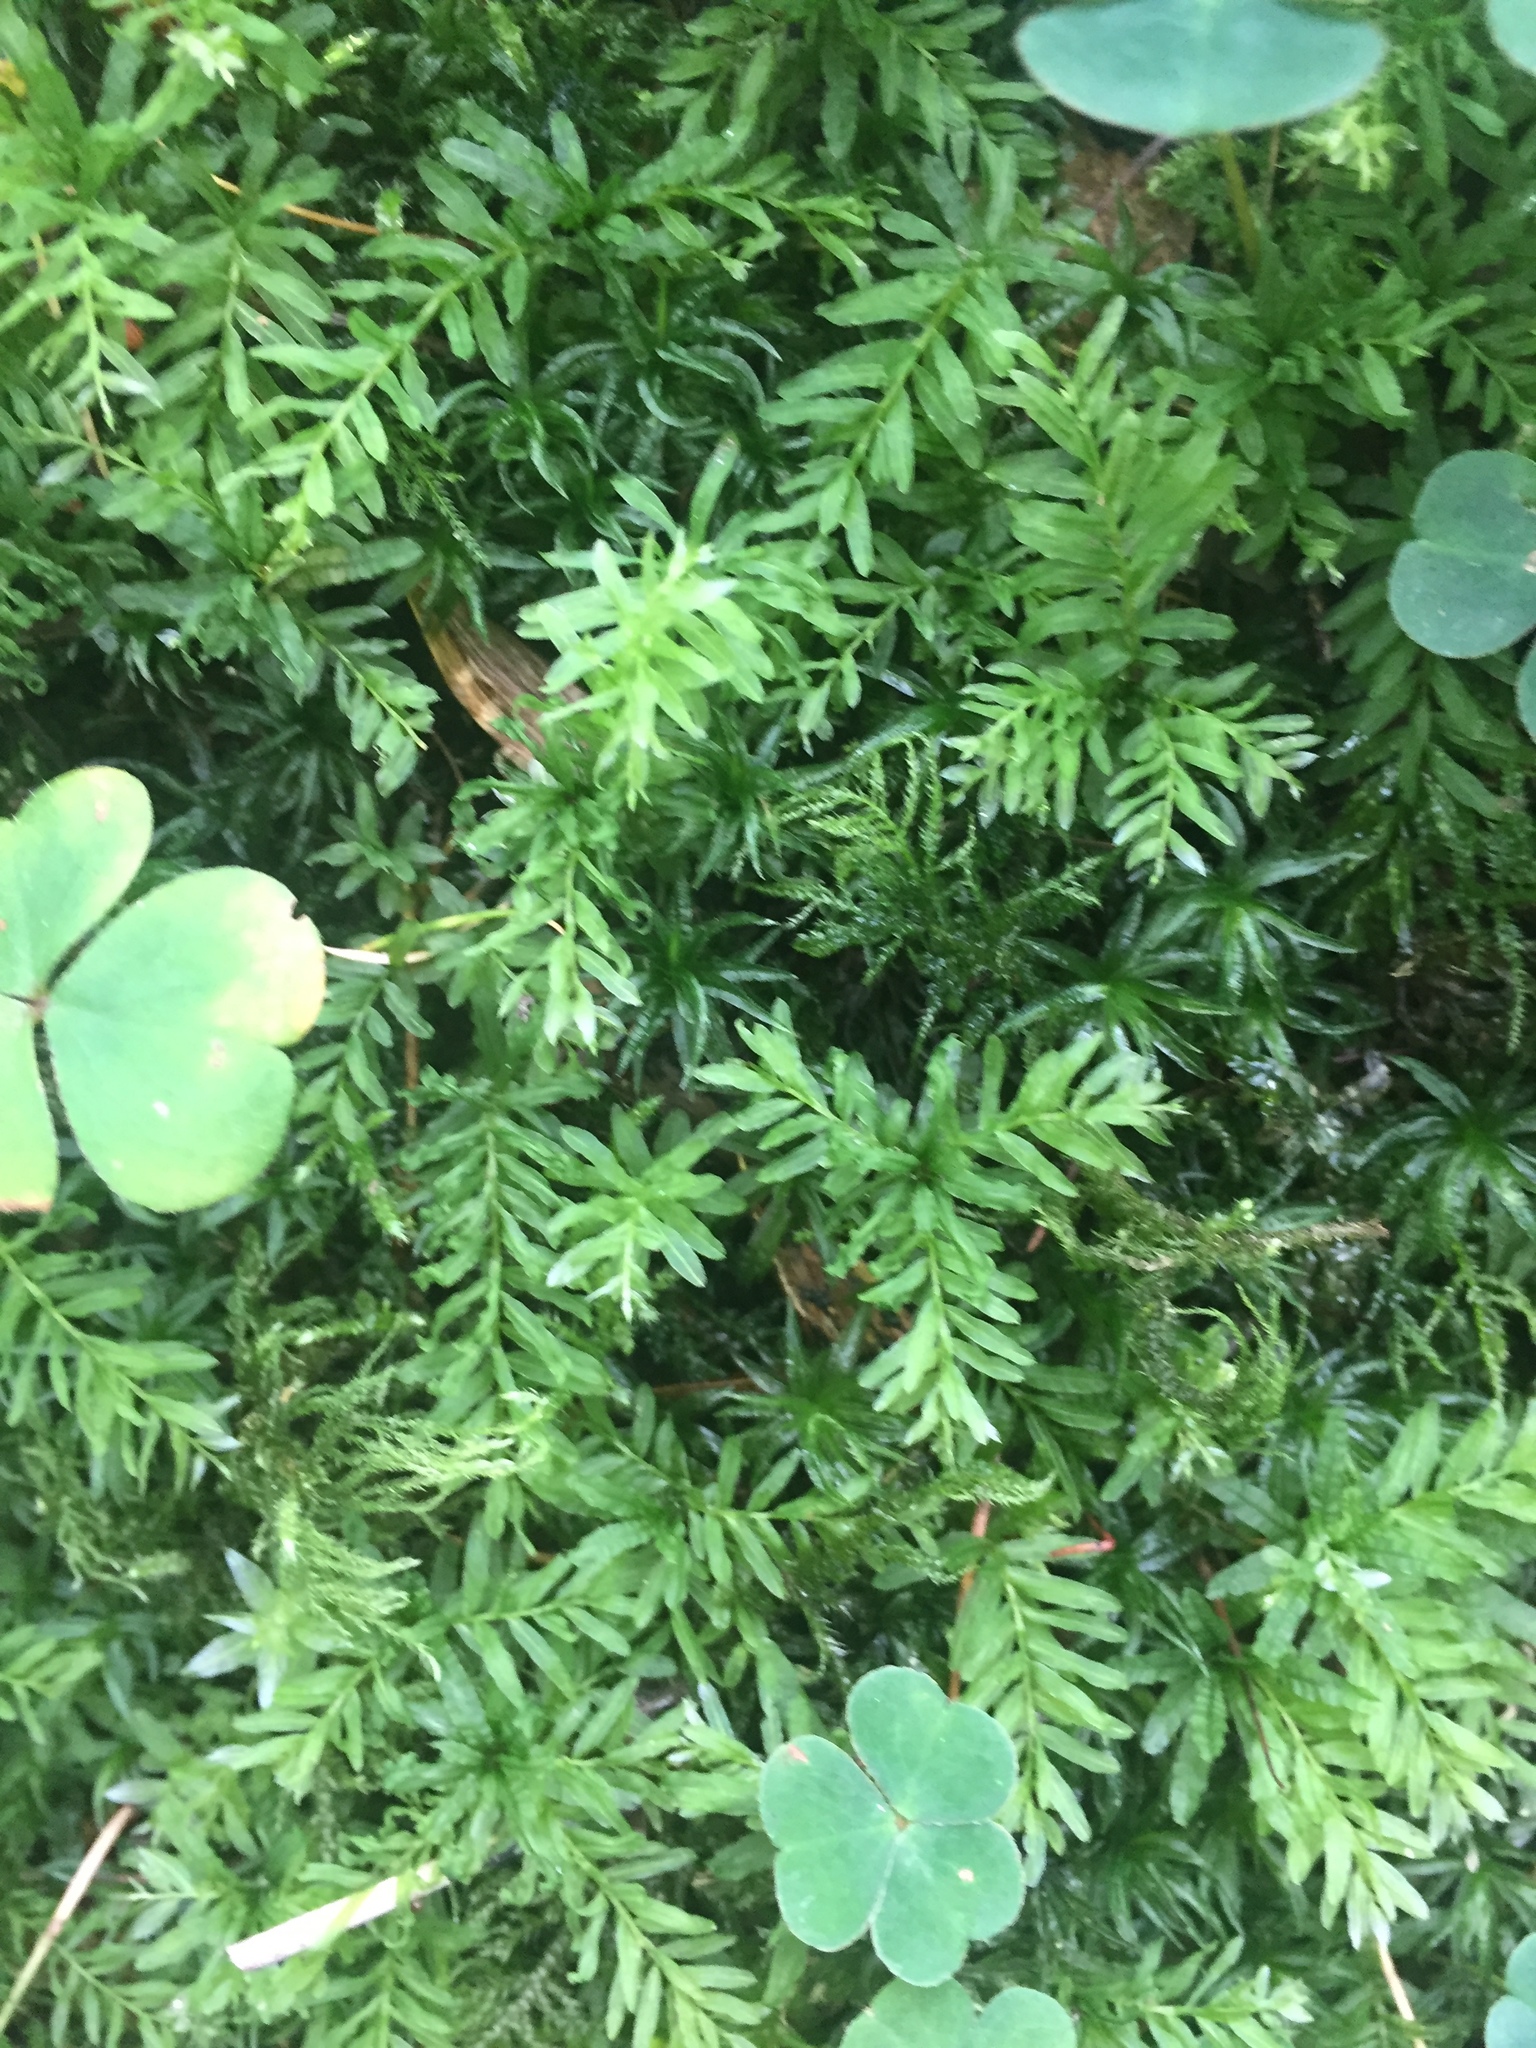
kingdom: Plantae
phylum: Bryophyta
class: Bryopsida
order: Bryales
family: Mniaceae
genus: Plagiomnium
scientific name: Plagiomnium undulatum
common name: Hart's-tongue thyme-moss
